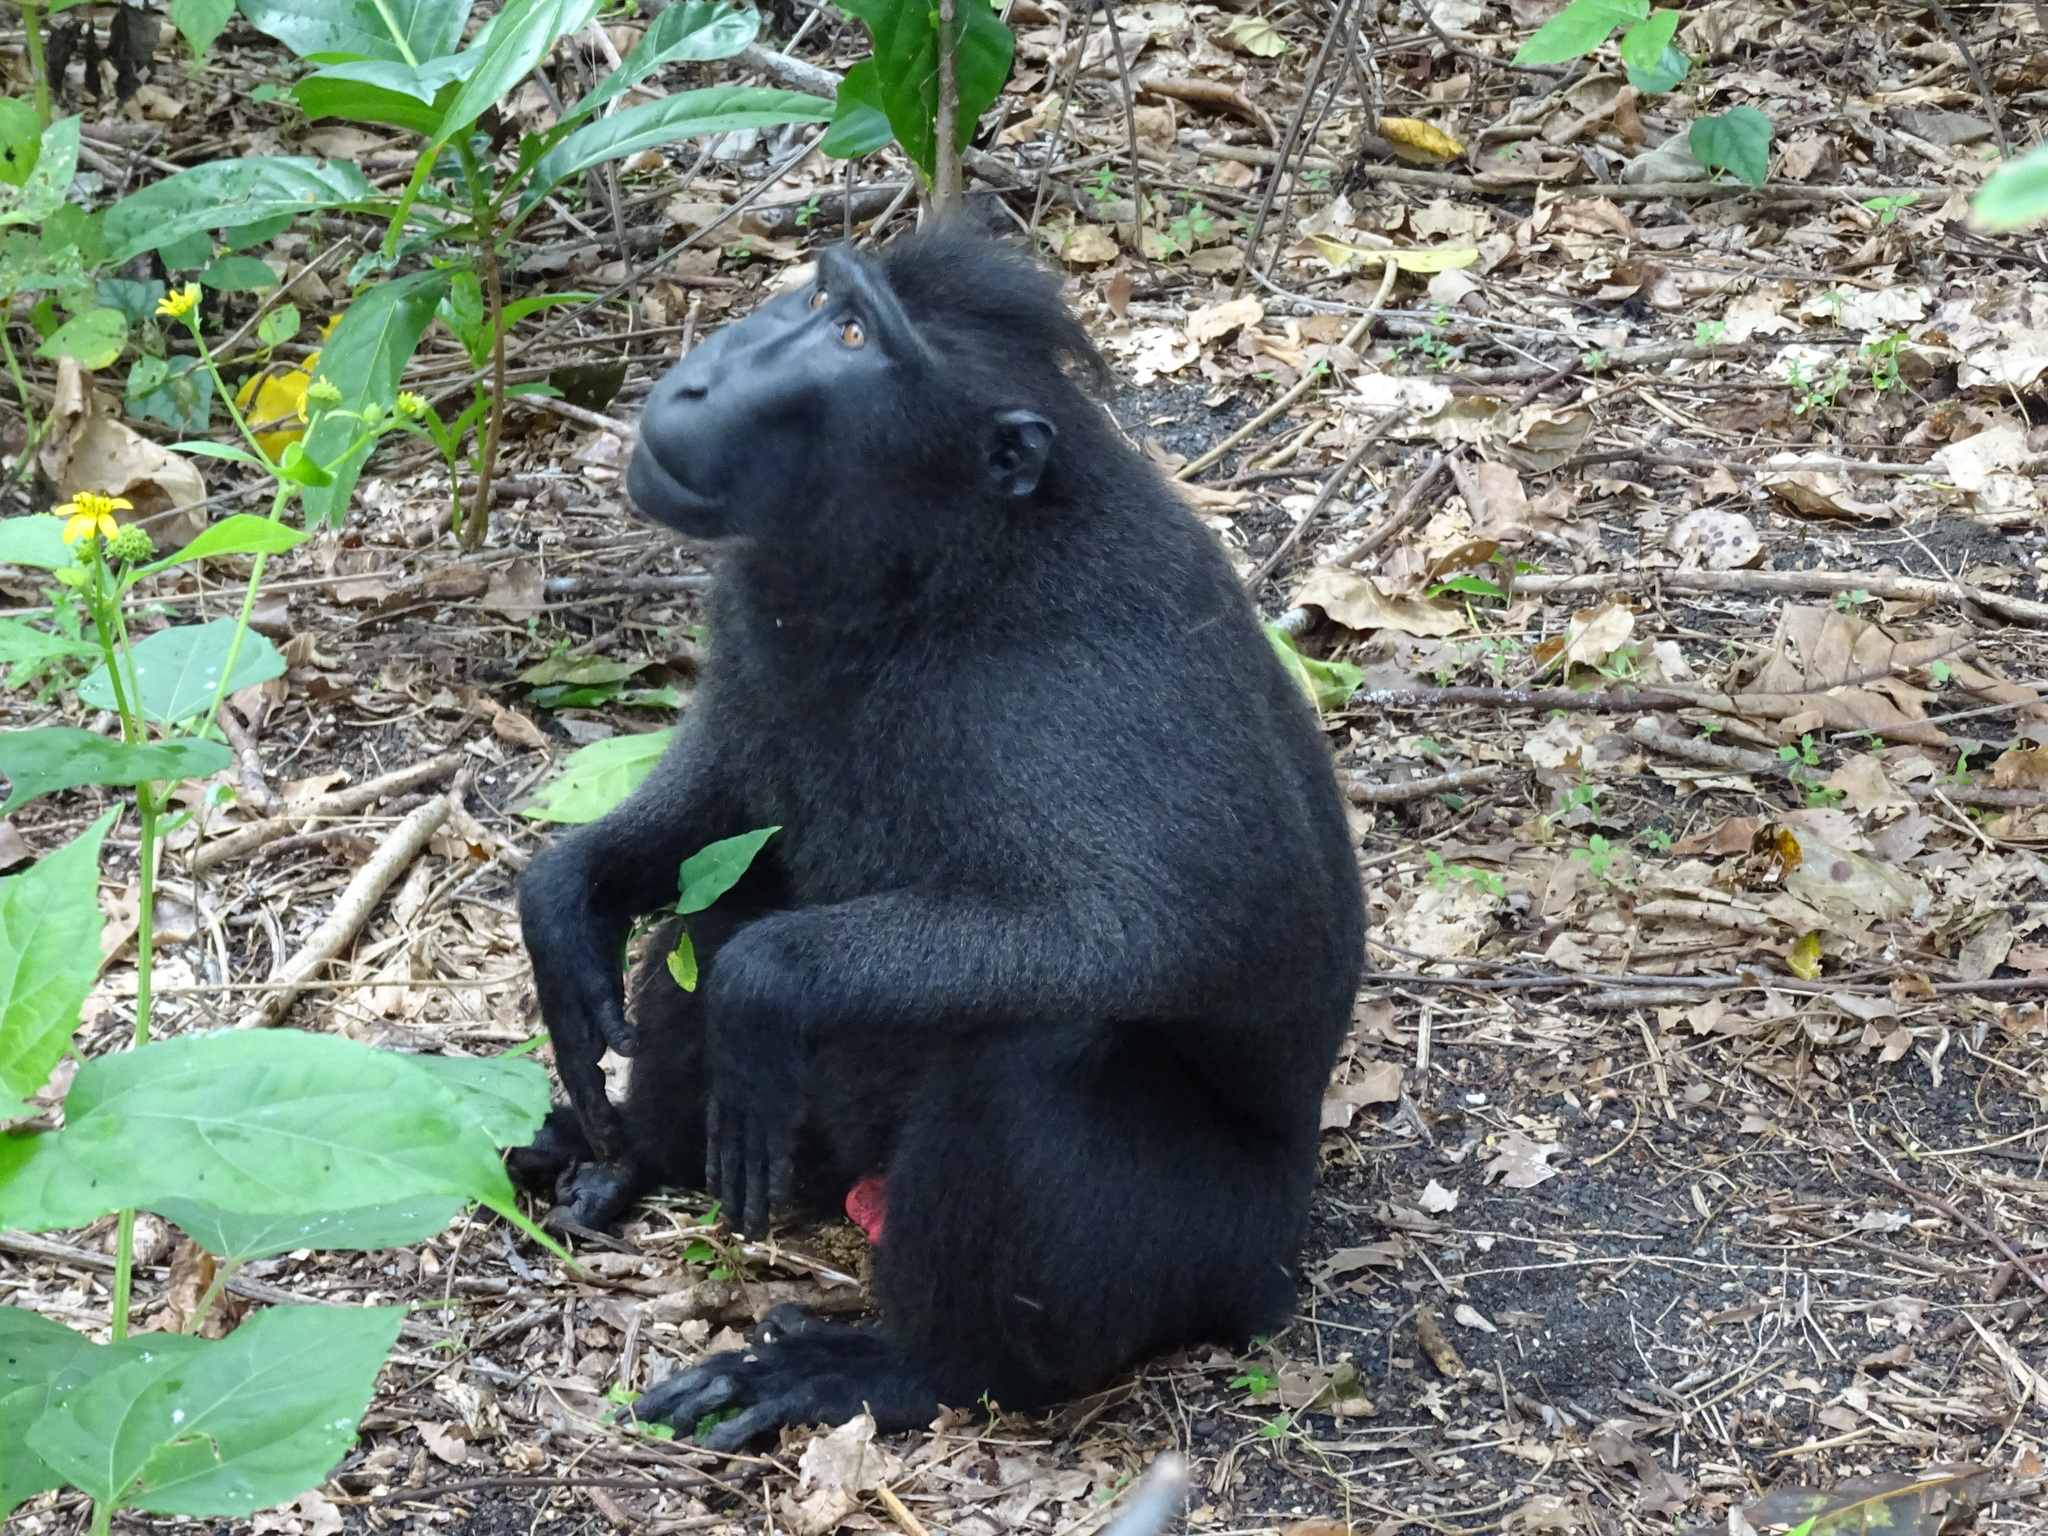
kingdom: Animalia
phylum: Chordata
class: Mammalia
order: Primates
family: Cercopithecidae
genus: Macaca
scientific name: Macaca nigra
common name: Celebes crested macaque
